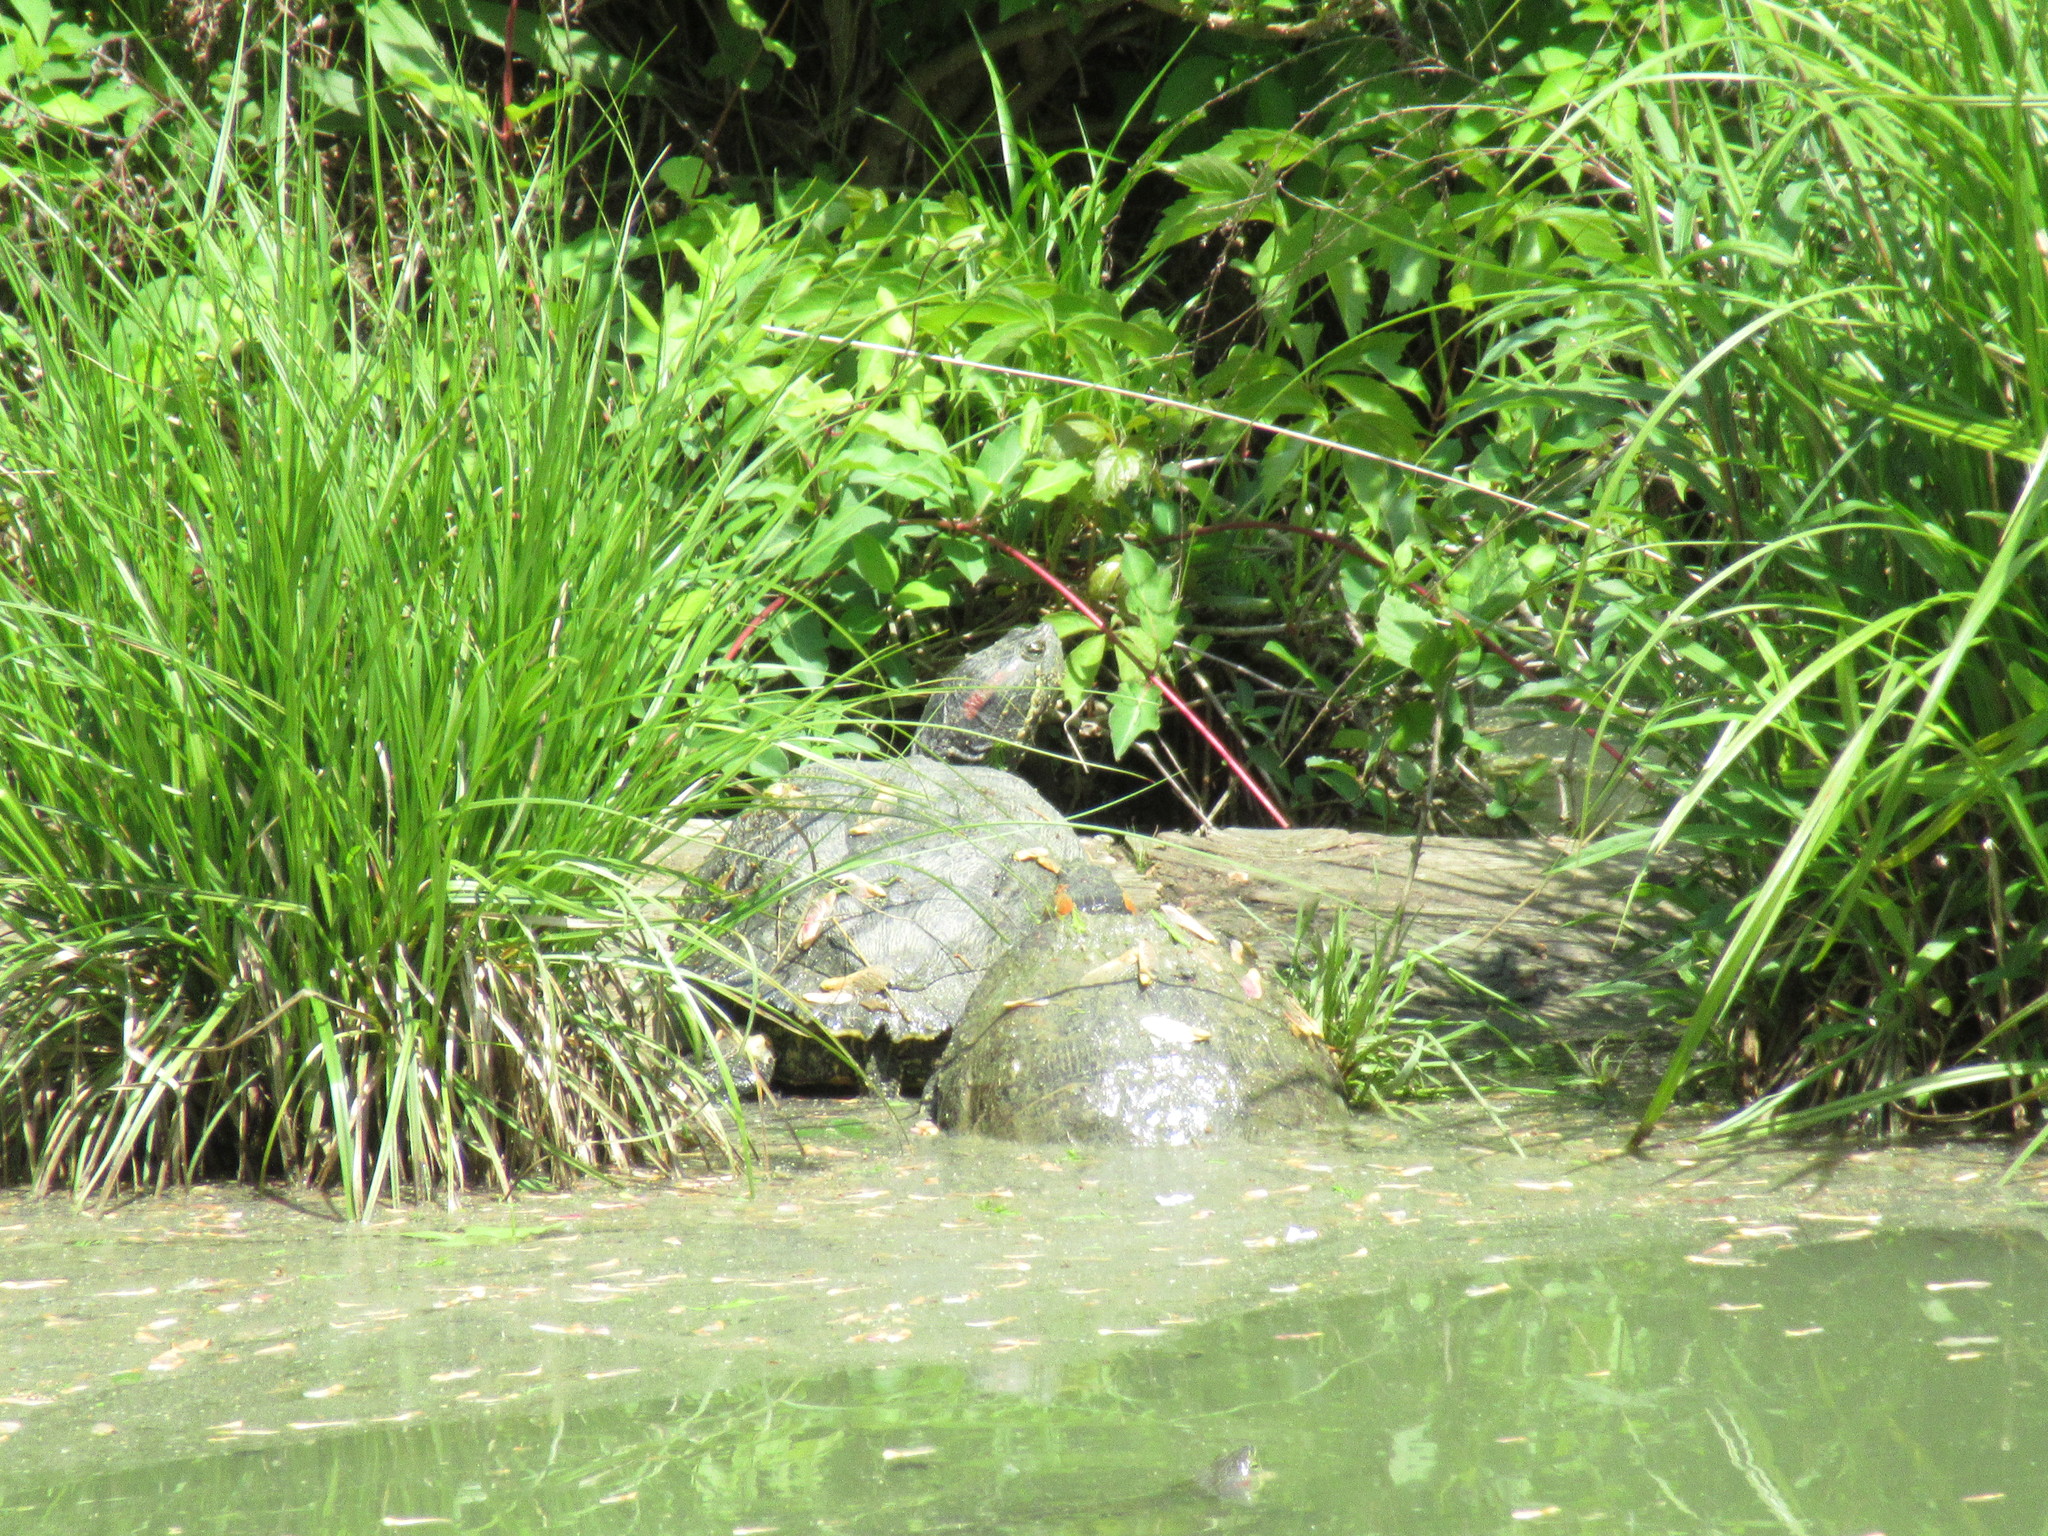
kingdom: Animalia
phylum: Chordata
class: Testudines
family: Emydidae
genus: Trachemys
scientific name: Trachemys scripta
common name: Slider
